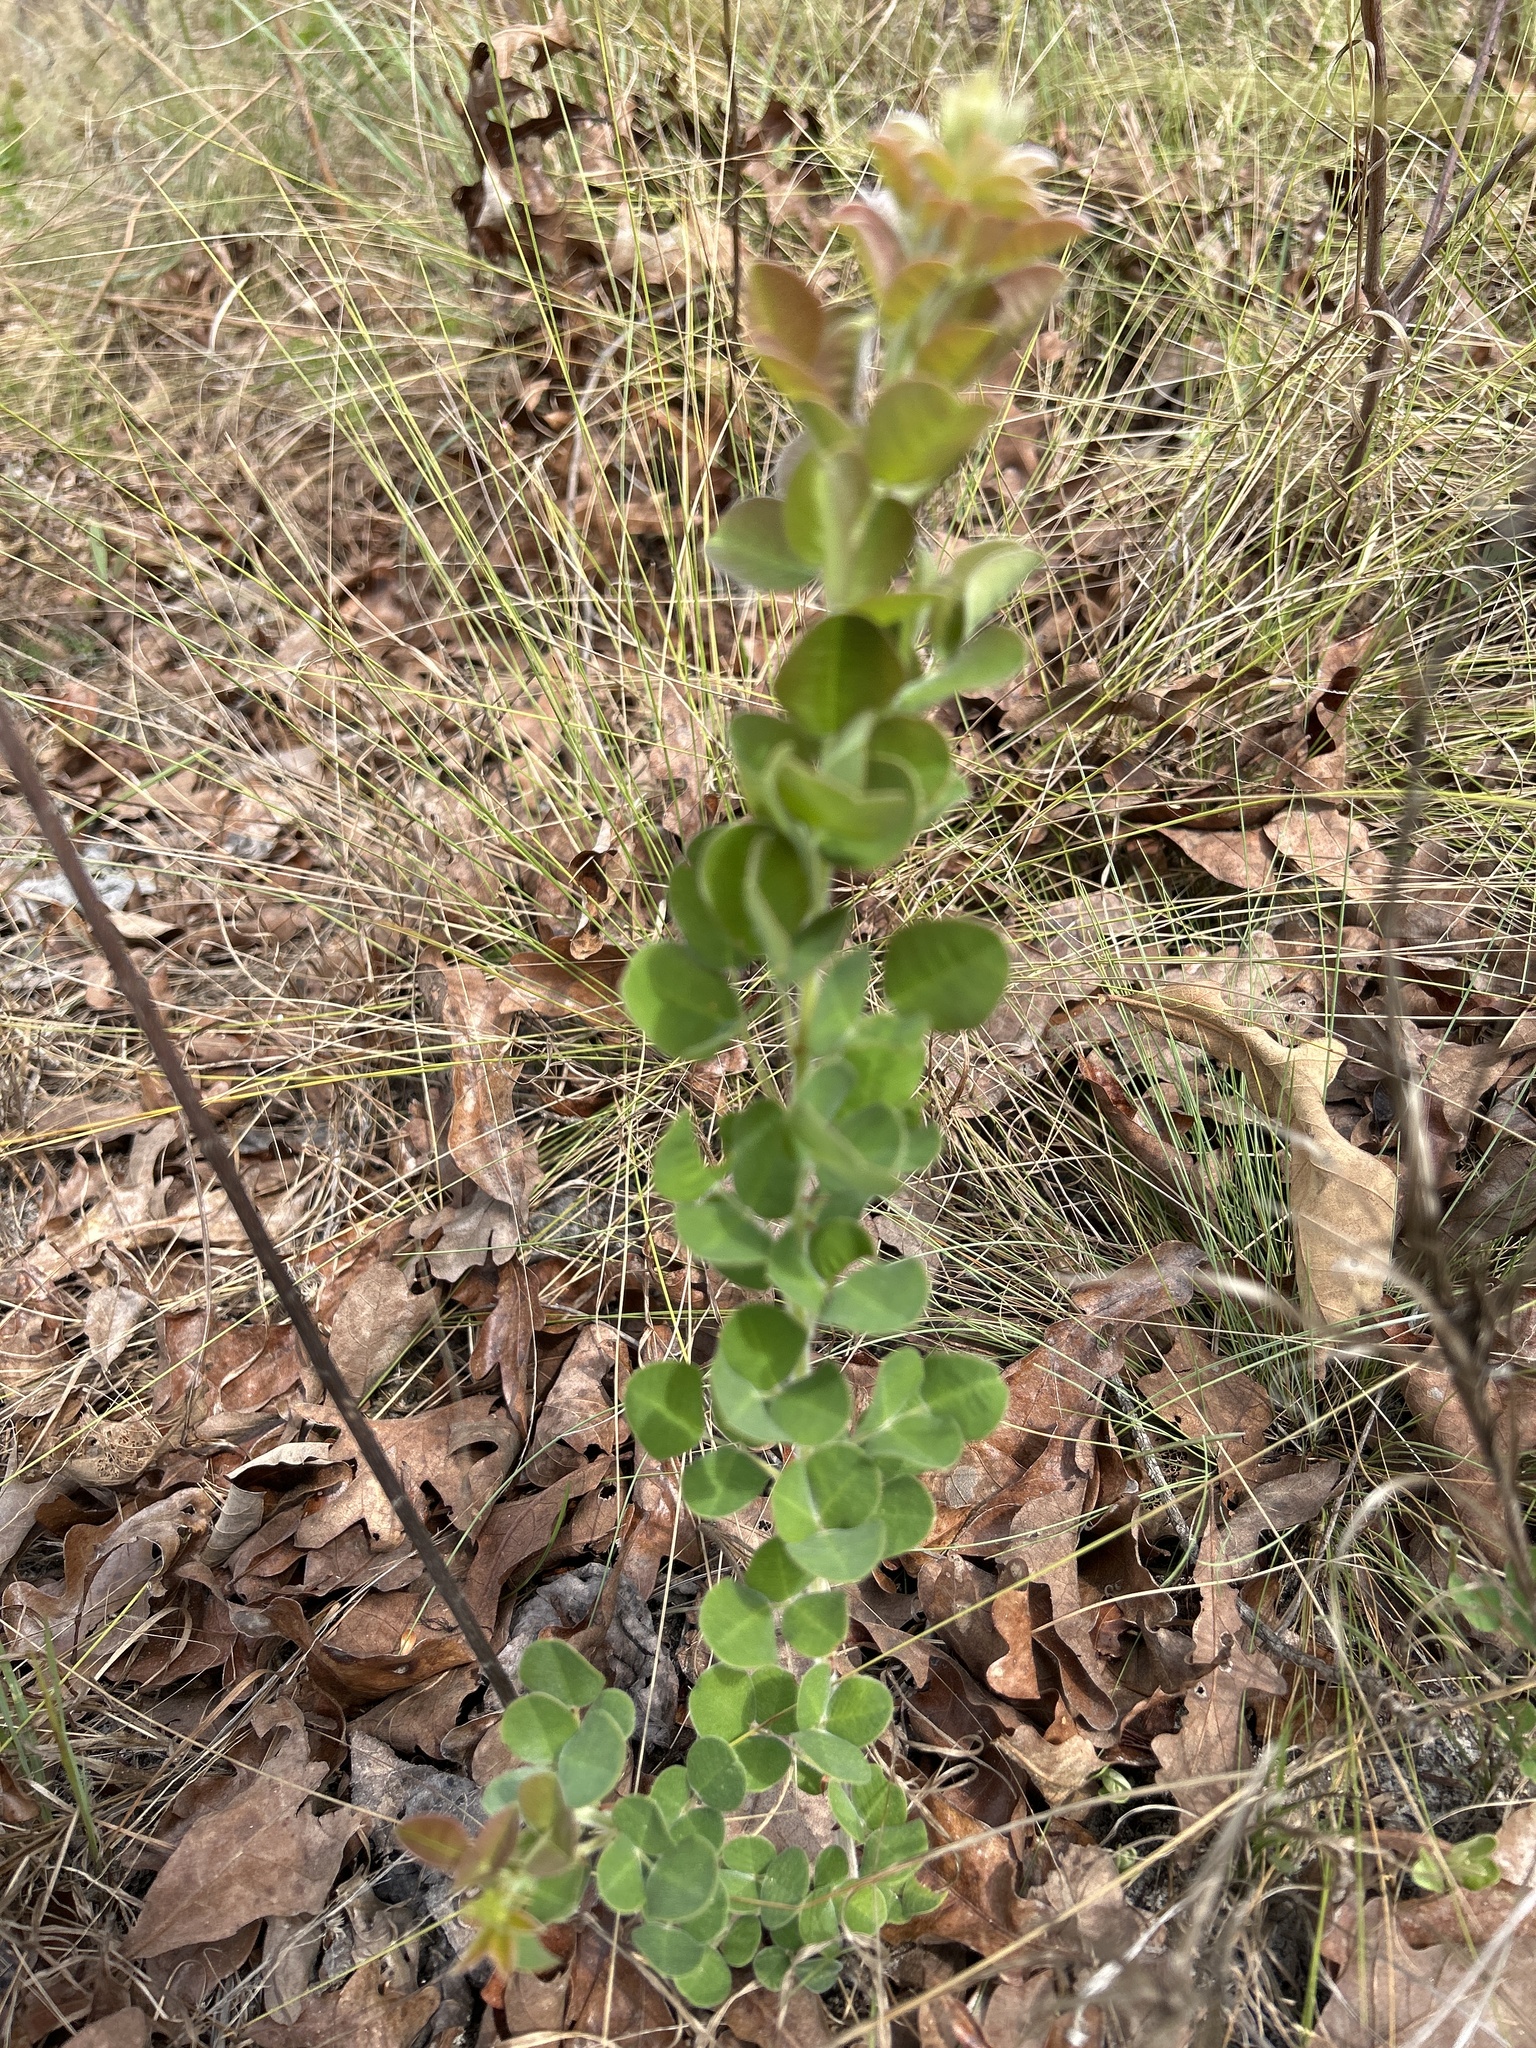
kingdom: Plantae
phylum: Tracheophyta
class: Magnoliopsida
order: Fabales
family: Fabaceae
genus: Lespedeza
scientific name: Lespedeza hirta
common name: Hairy lespedeza
